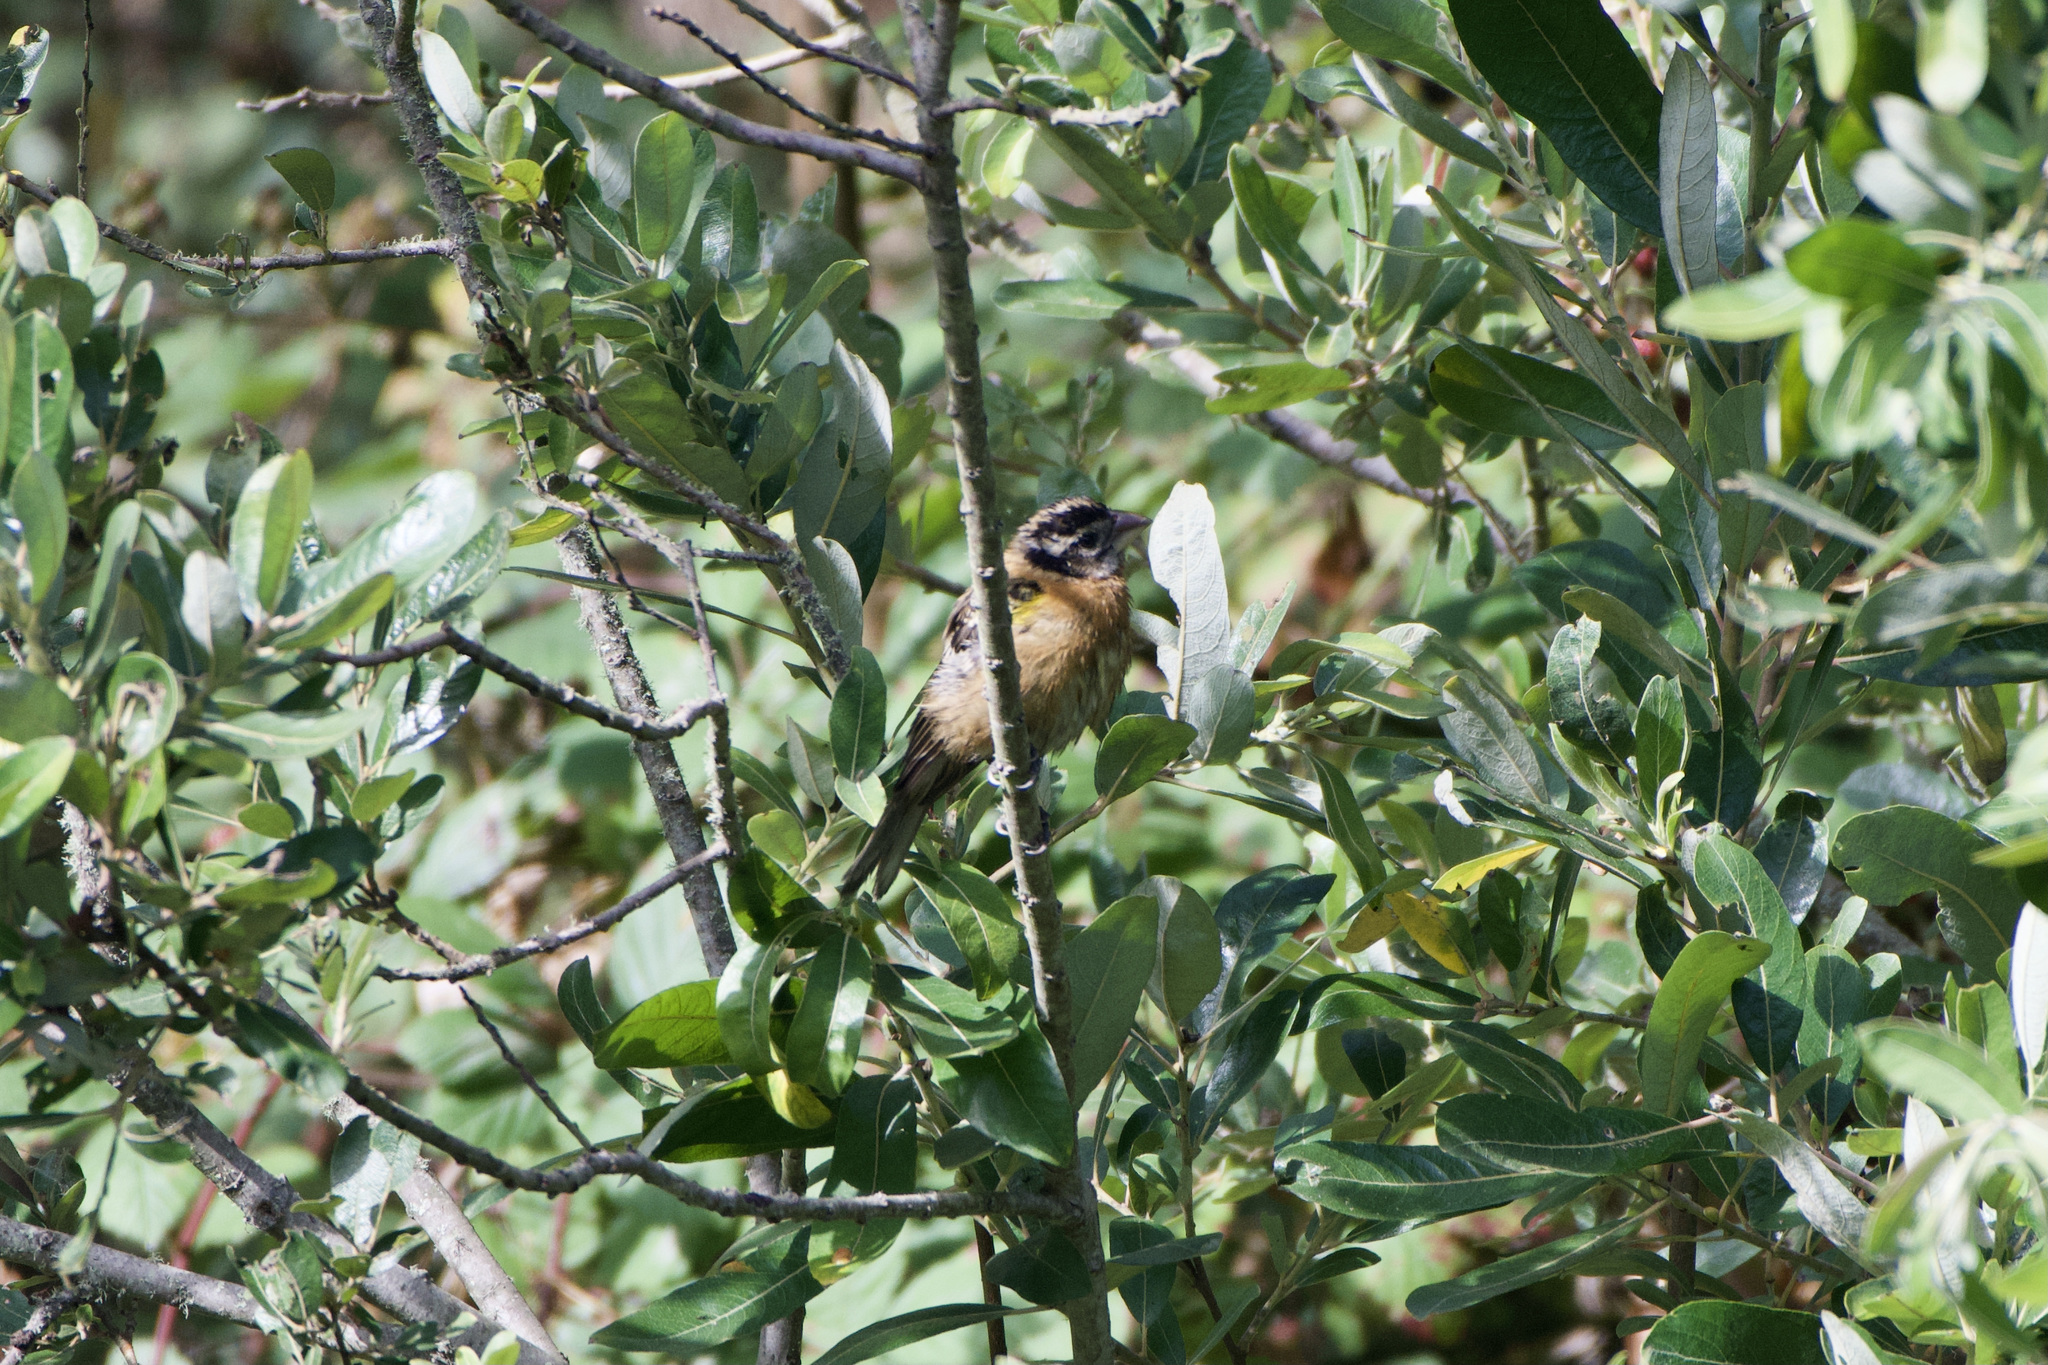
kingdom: Animalia
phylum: Chordata
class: Aves
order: Passeriformes
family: Cardinalidae
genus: Pheucticus
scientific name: Pheucticus melanocephalus
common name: Black-headed grosbeak
